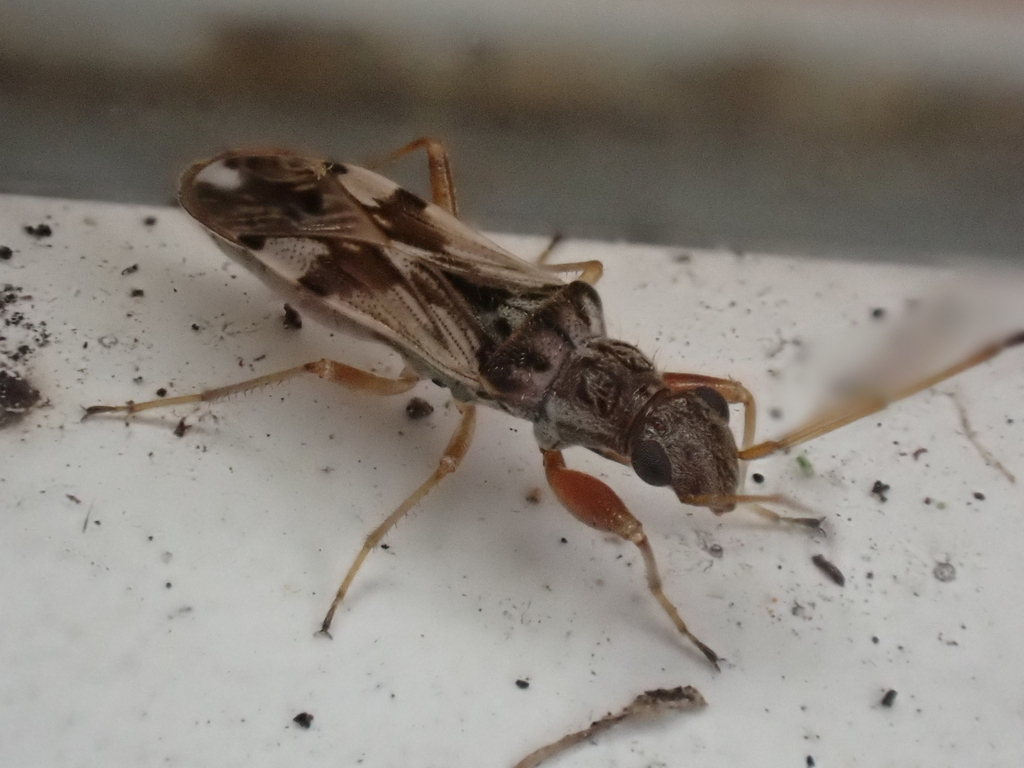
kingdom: Animalia
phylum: Arthropoda
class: Insecta
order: Hemiptera
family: Rhyparochromidae
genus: Neopamera
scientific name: Neopamera bilobata
